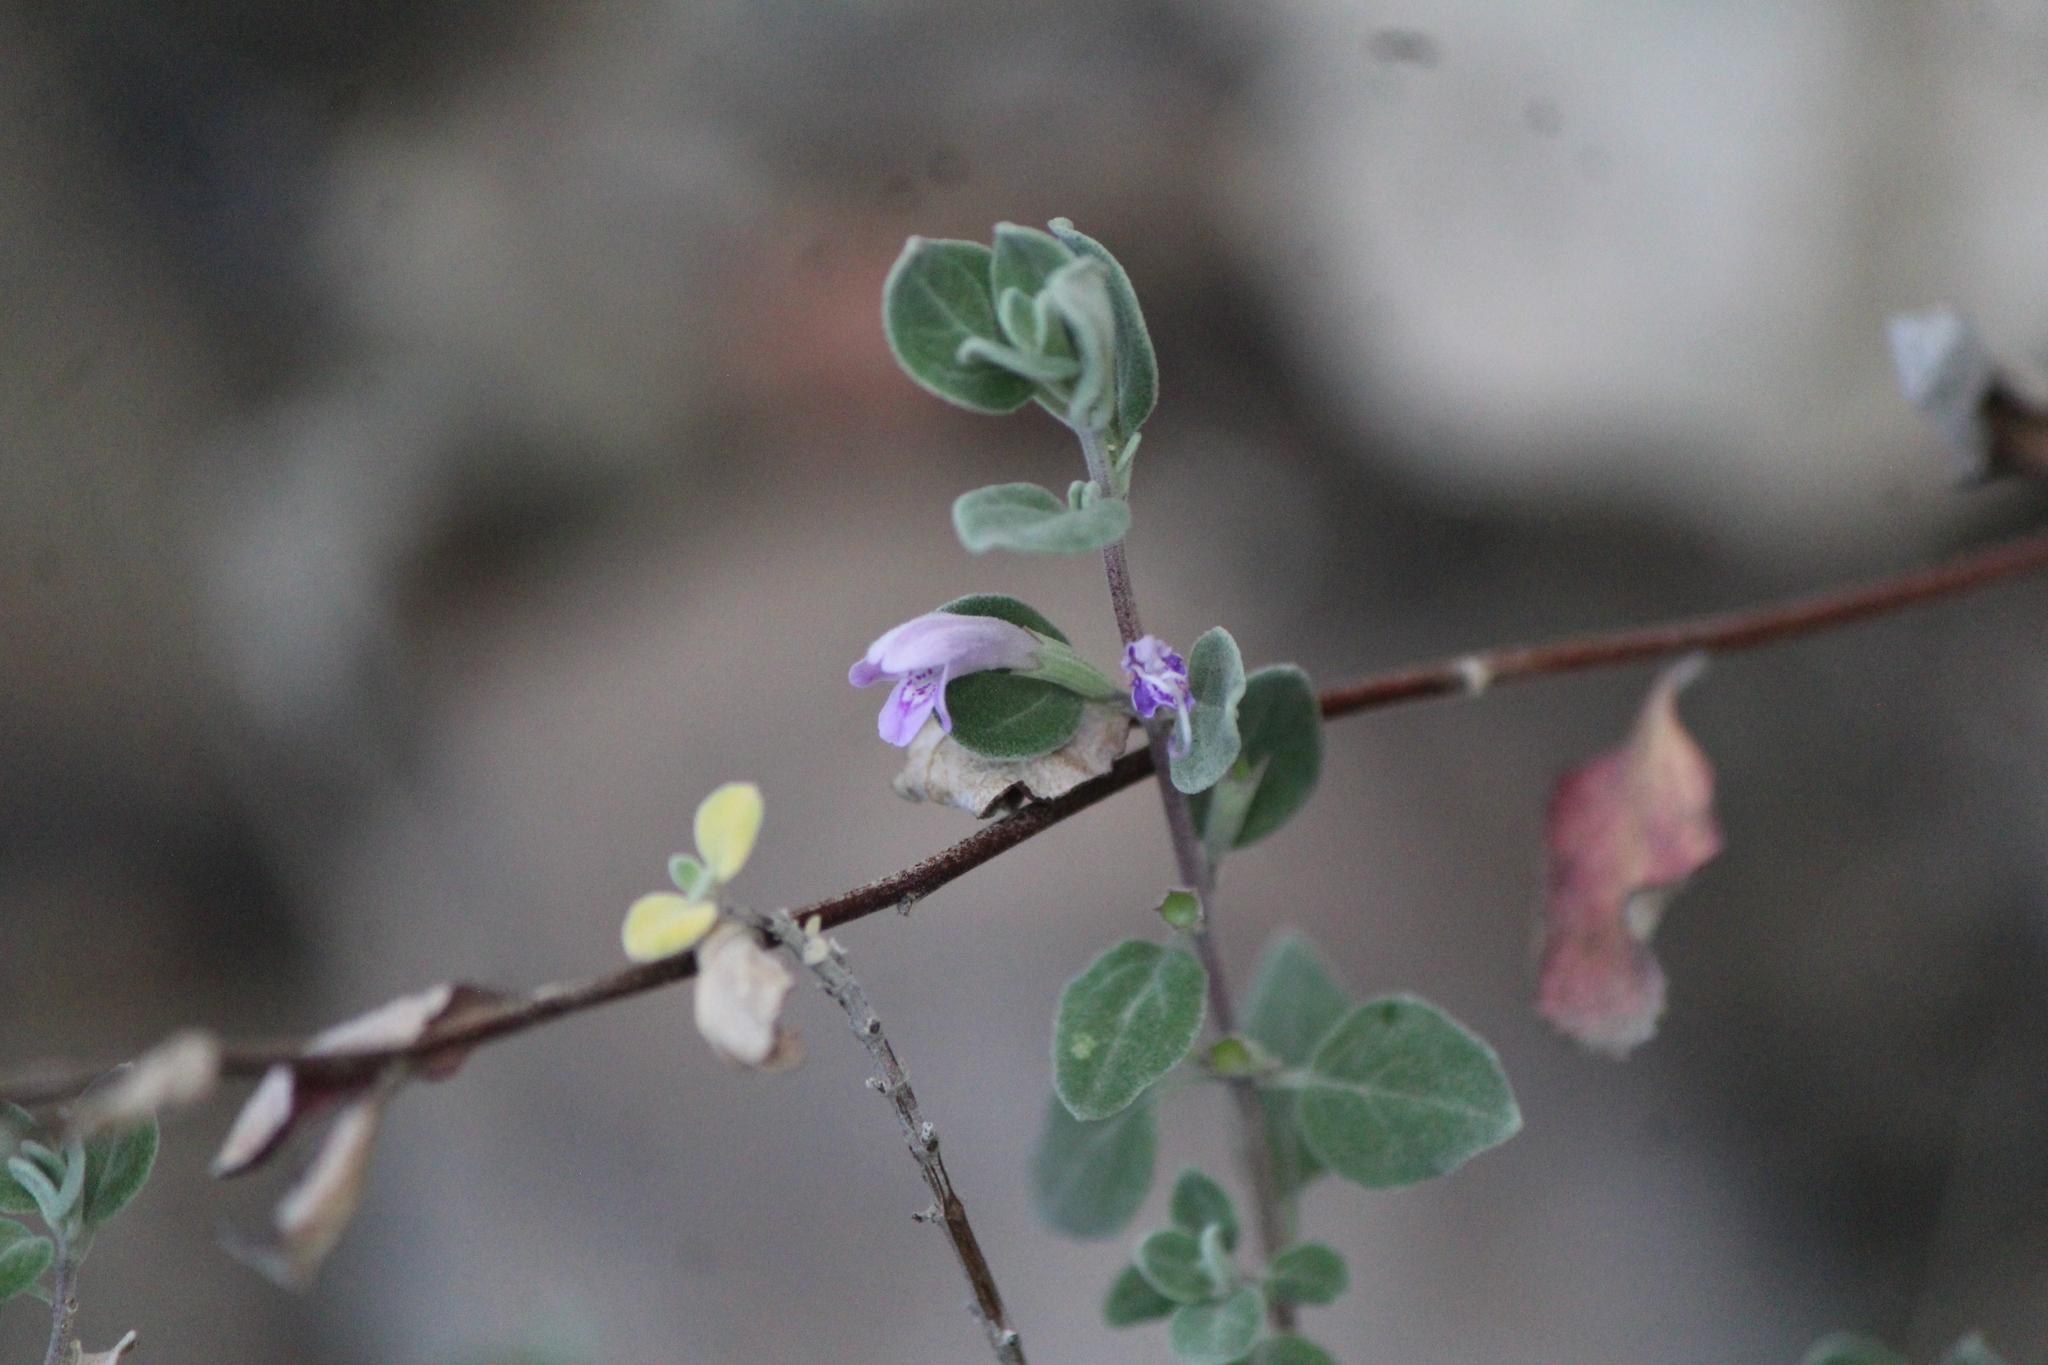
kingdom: Plantae
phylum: Tracheophyta
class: Magnoliopsida
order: Lamiales
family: Lamiaceae
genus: Poliomintha
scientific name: Poliomintha marifolia
